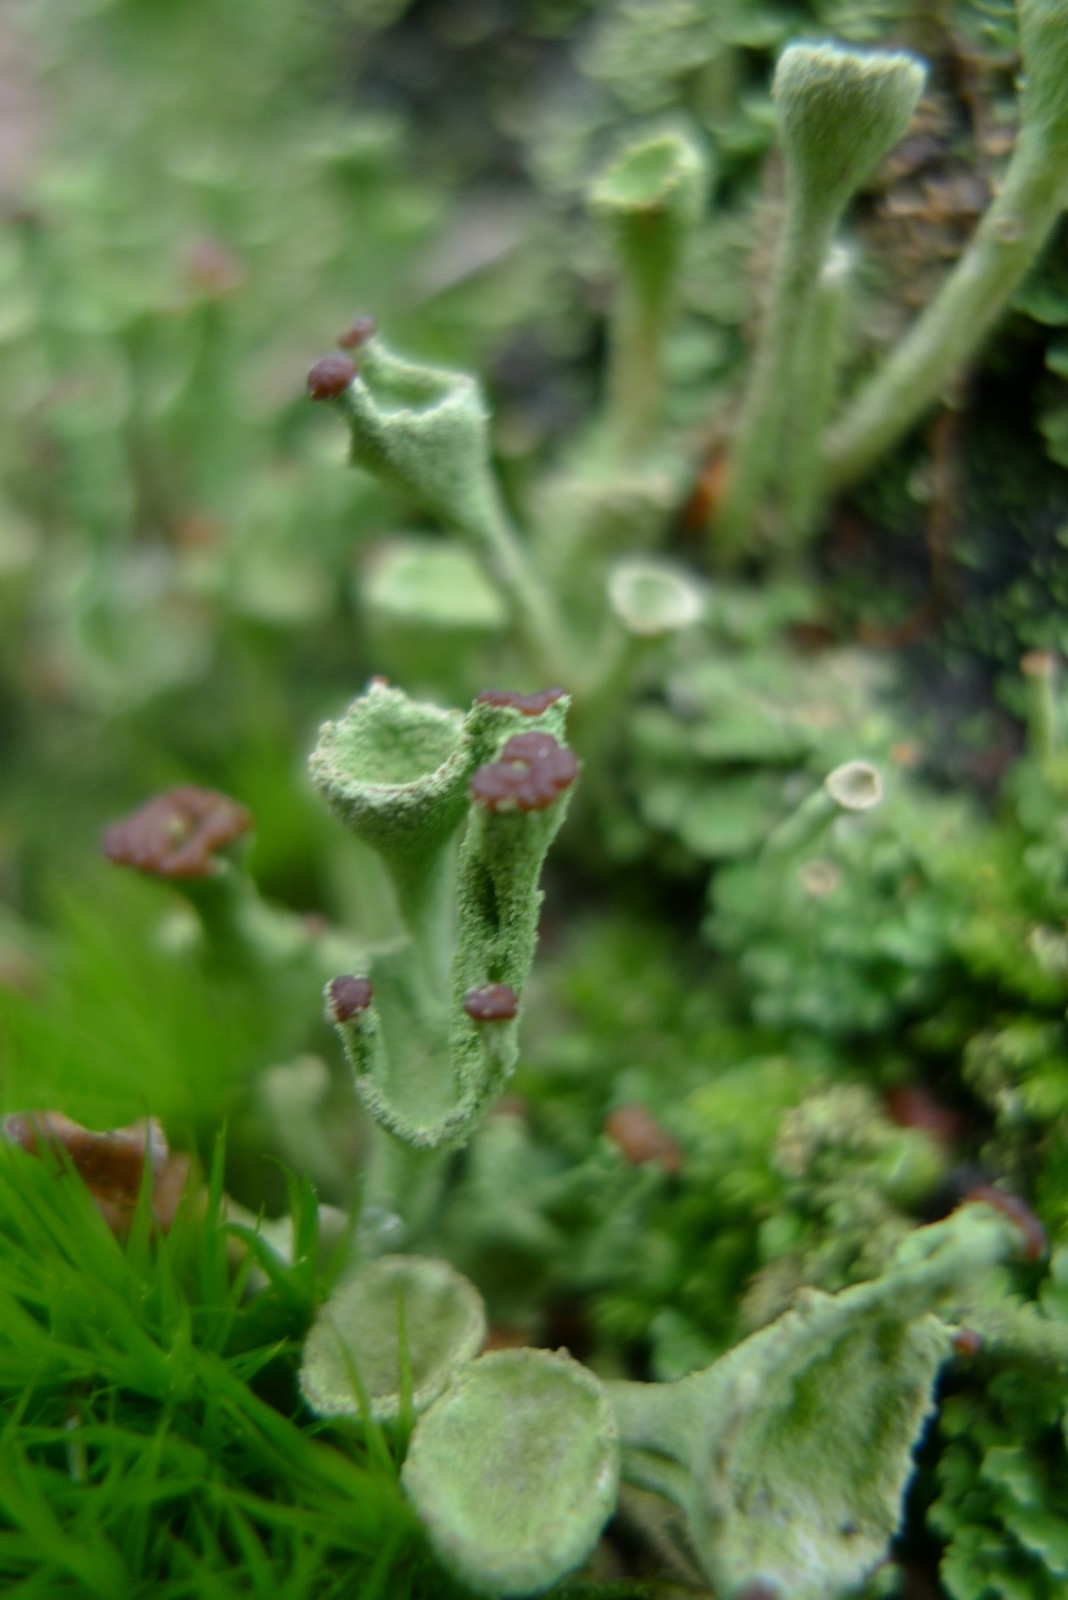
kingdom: Fungi
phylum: Ascomycota
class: Lecanoromycetes
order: Lecanorales
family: Cladoniaceae
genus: Cladonia
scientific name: Cladonia fimbriata
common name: Powdered trumpet lichen
